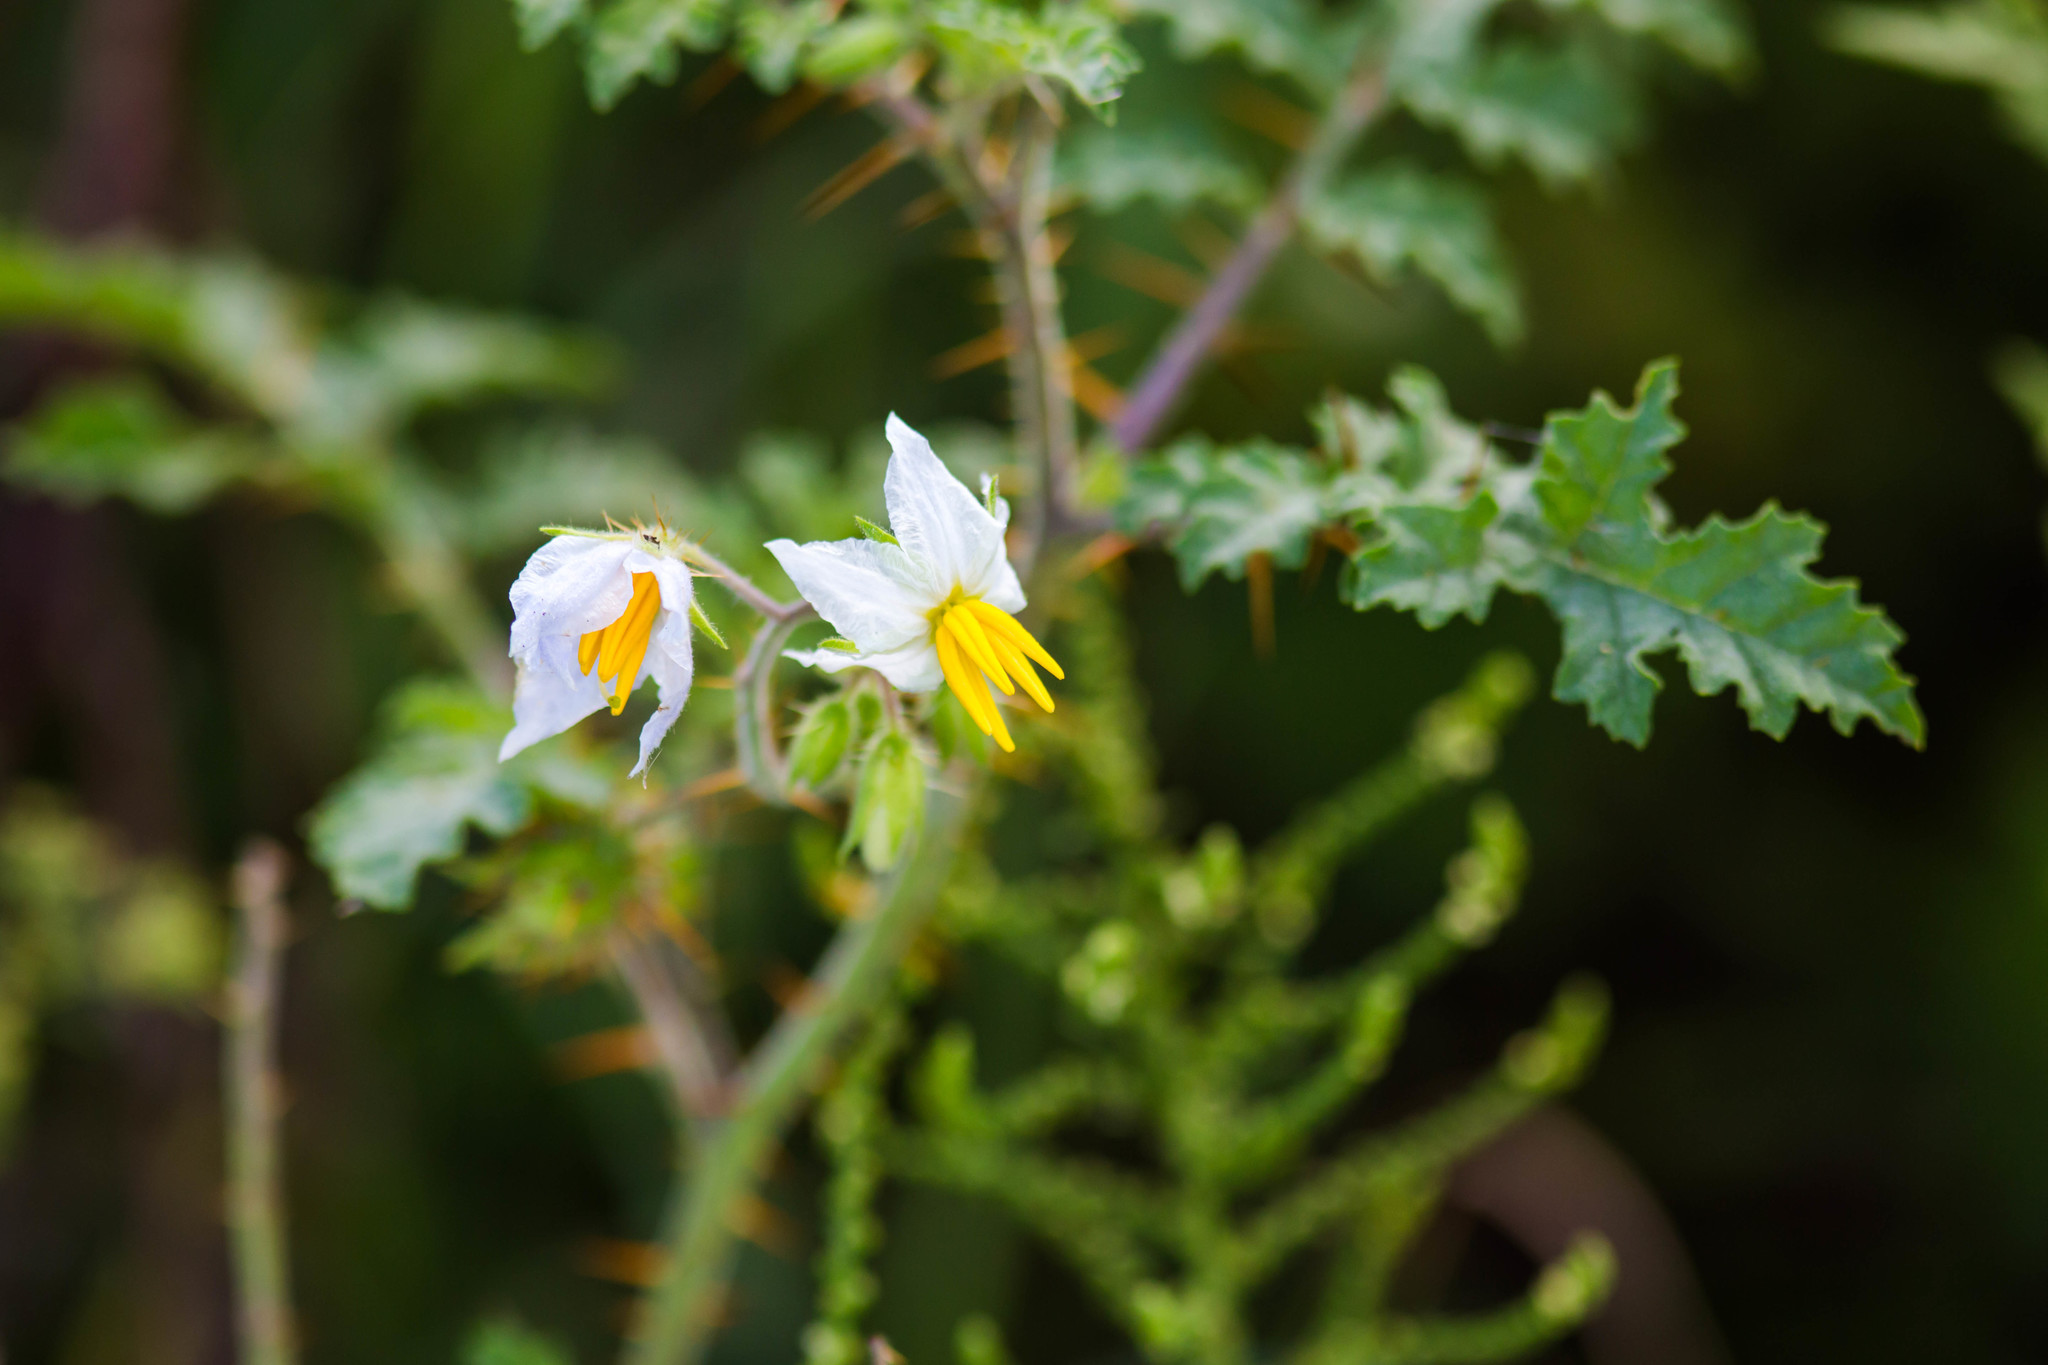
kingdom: Plantae
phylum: Tracheophyta
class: Magnoliopsida
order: Solanales
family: Solanaceae
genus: Solanum
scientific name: Solanum sisymbriifolium
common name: Red buffalo-bur
